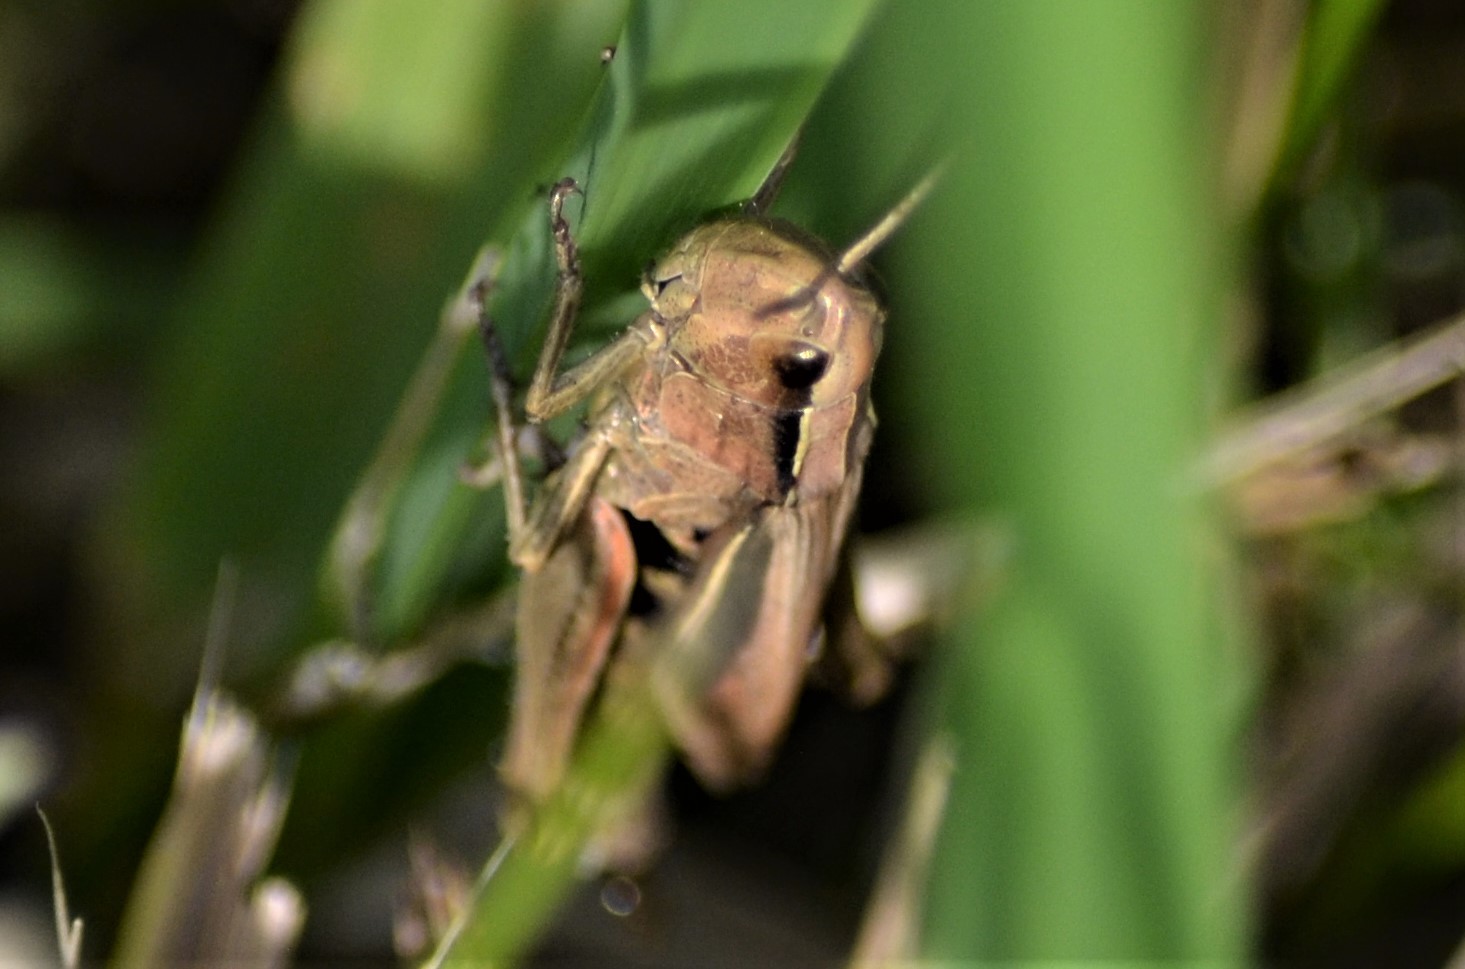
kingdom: Animalia
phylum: Arthropoda
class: Insecta
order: Orthoptera
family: Acrididae
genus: Chorthippus
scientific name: Chorthippus albomarginatus
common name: Lesser marsh grasshopper
